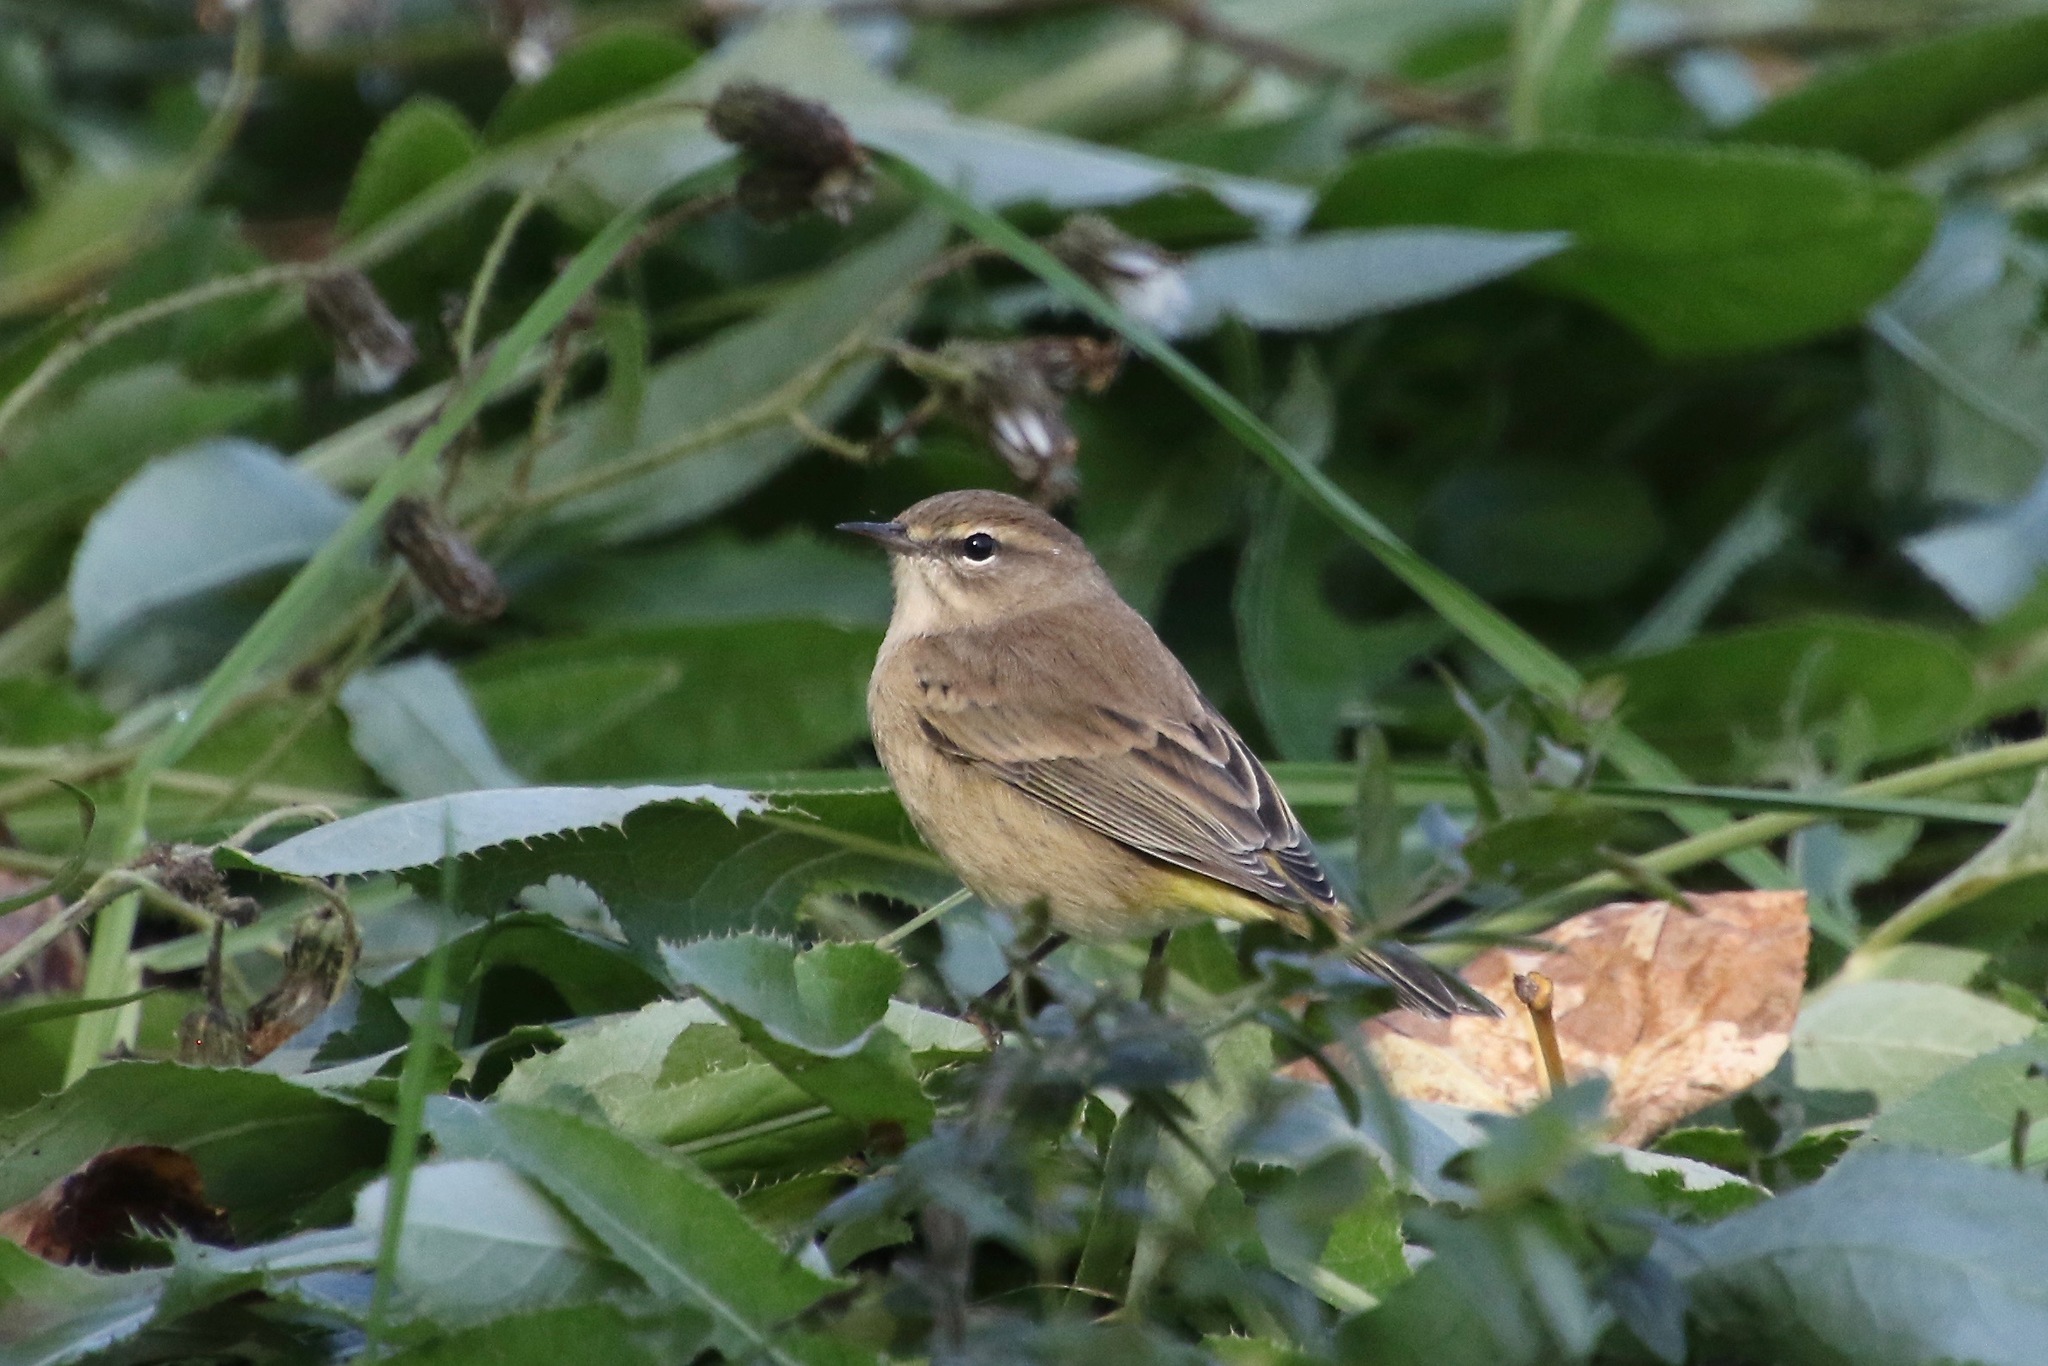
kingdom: Animalia
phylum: Chordata
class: Aves
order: Passeriformes
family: Parulidae
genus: Setophaga
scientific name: Setophaga palmarum
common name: Palm warbler
